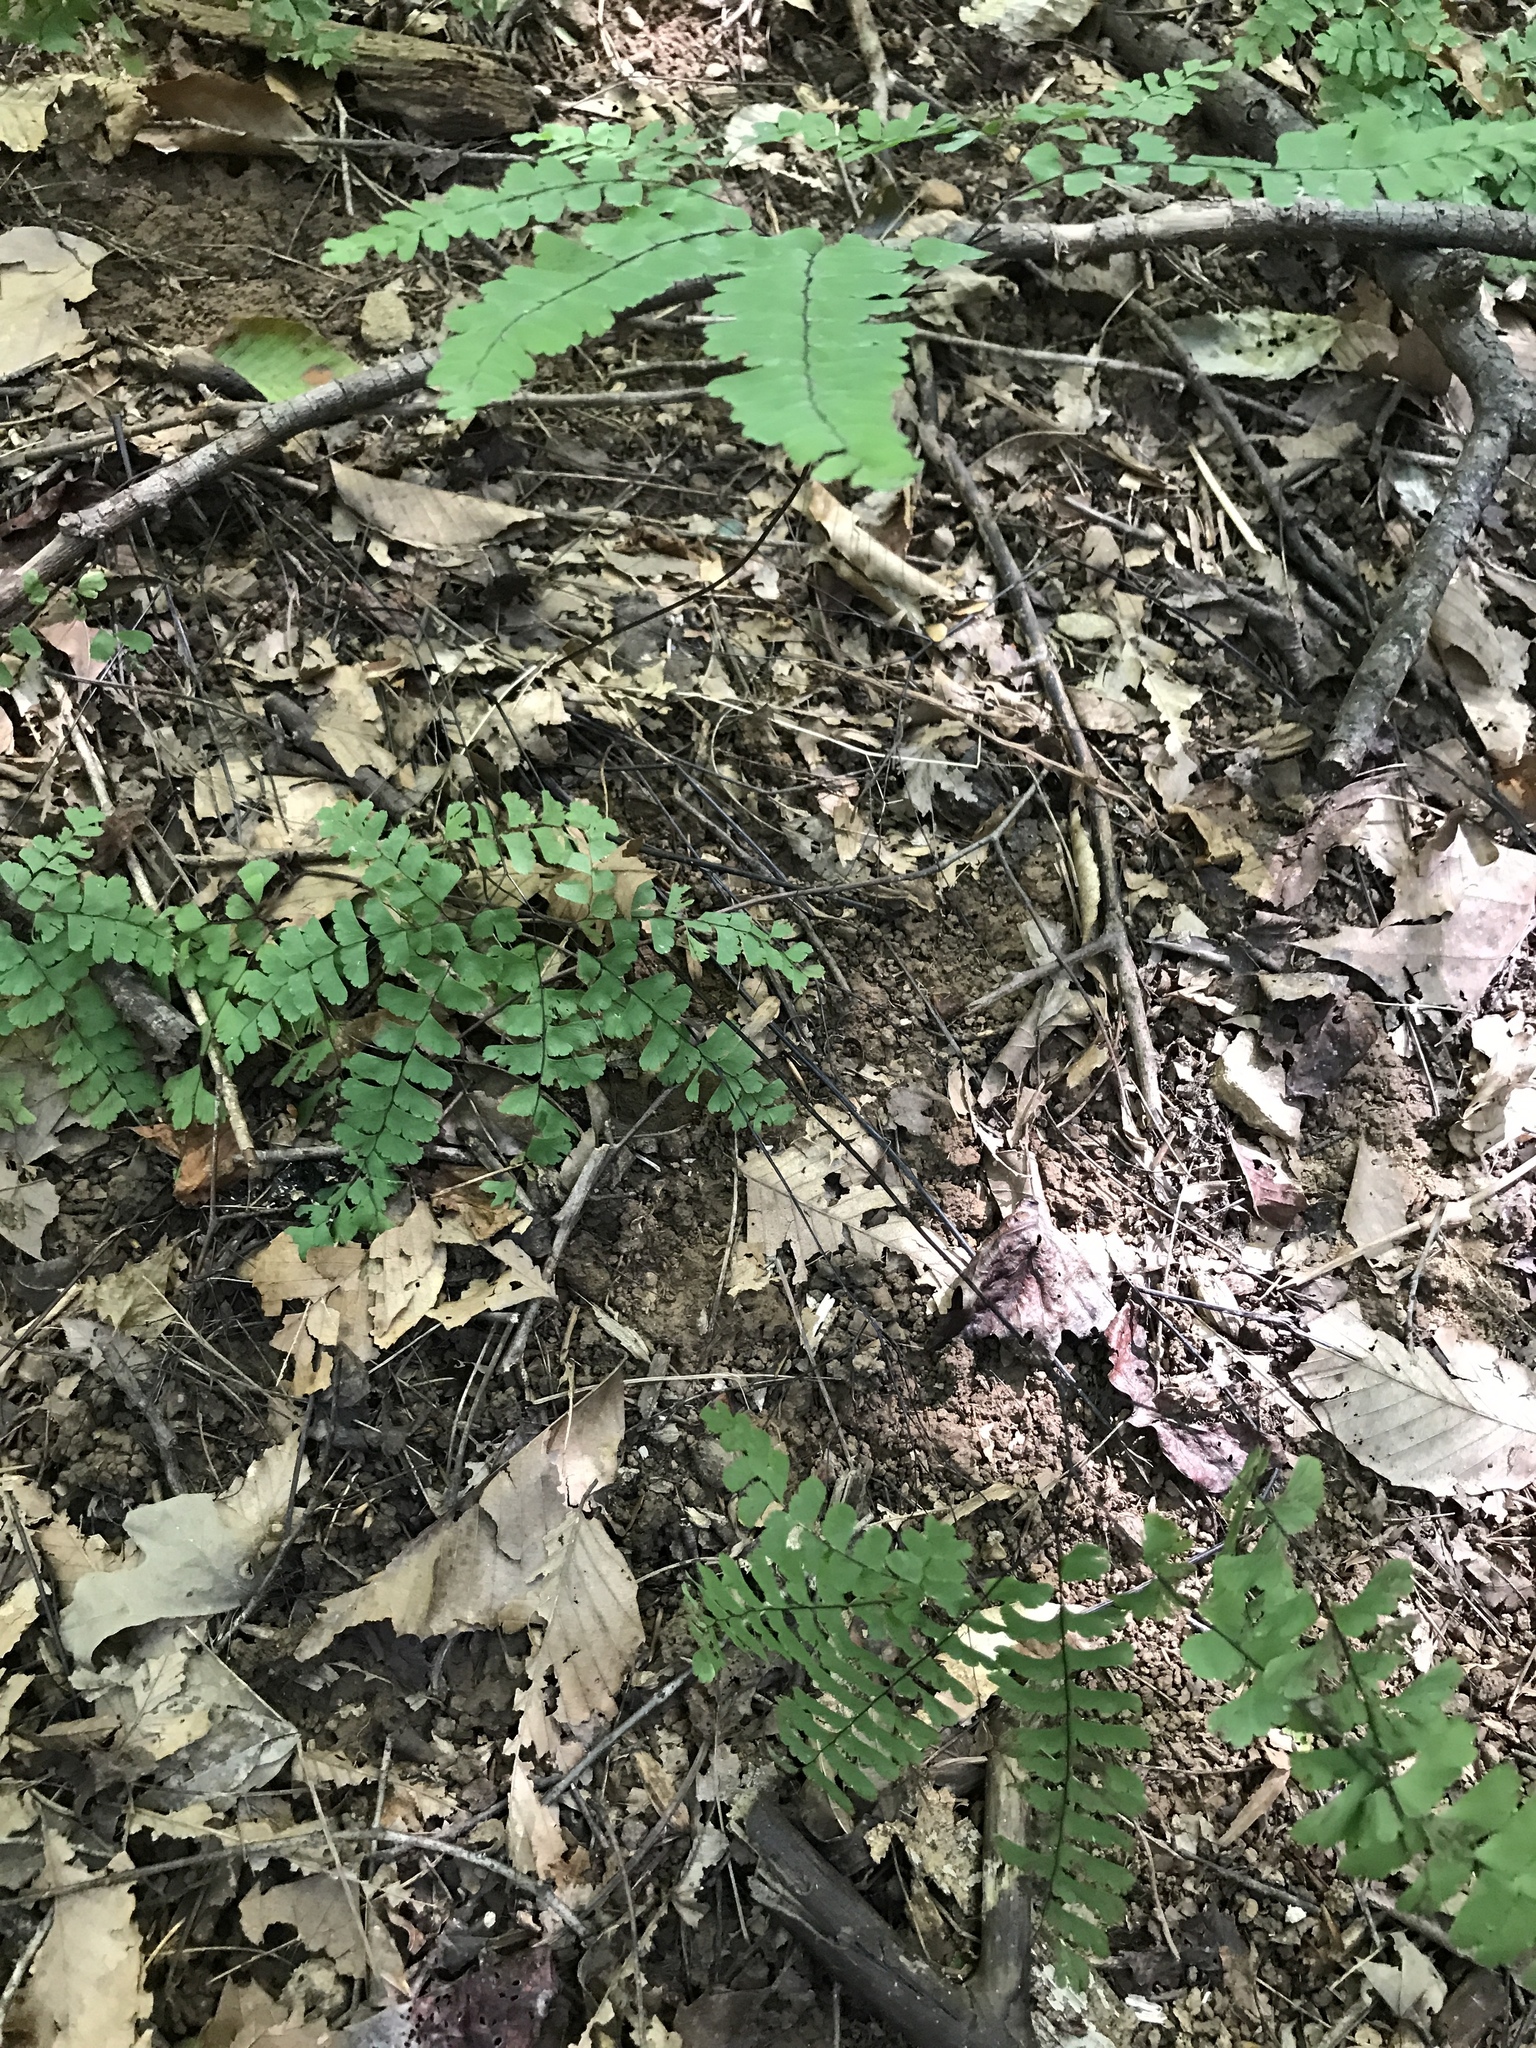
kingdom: Plantae
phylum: Tracheophyta
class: Polypodiopsida
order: Polypodiales
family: Pteridaceae
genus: Adiantum
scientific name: Adiantum pedatum
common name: Five-finger fern
